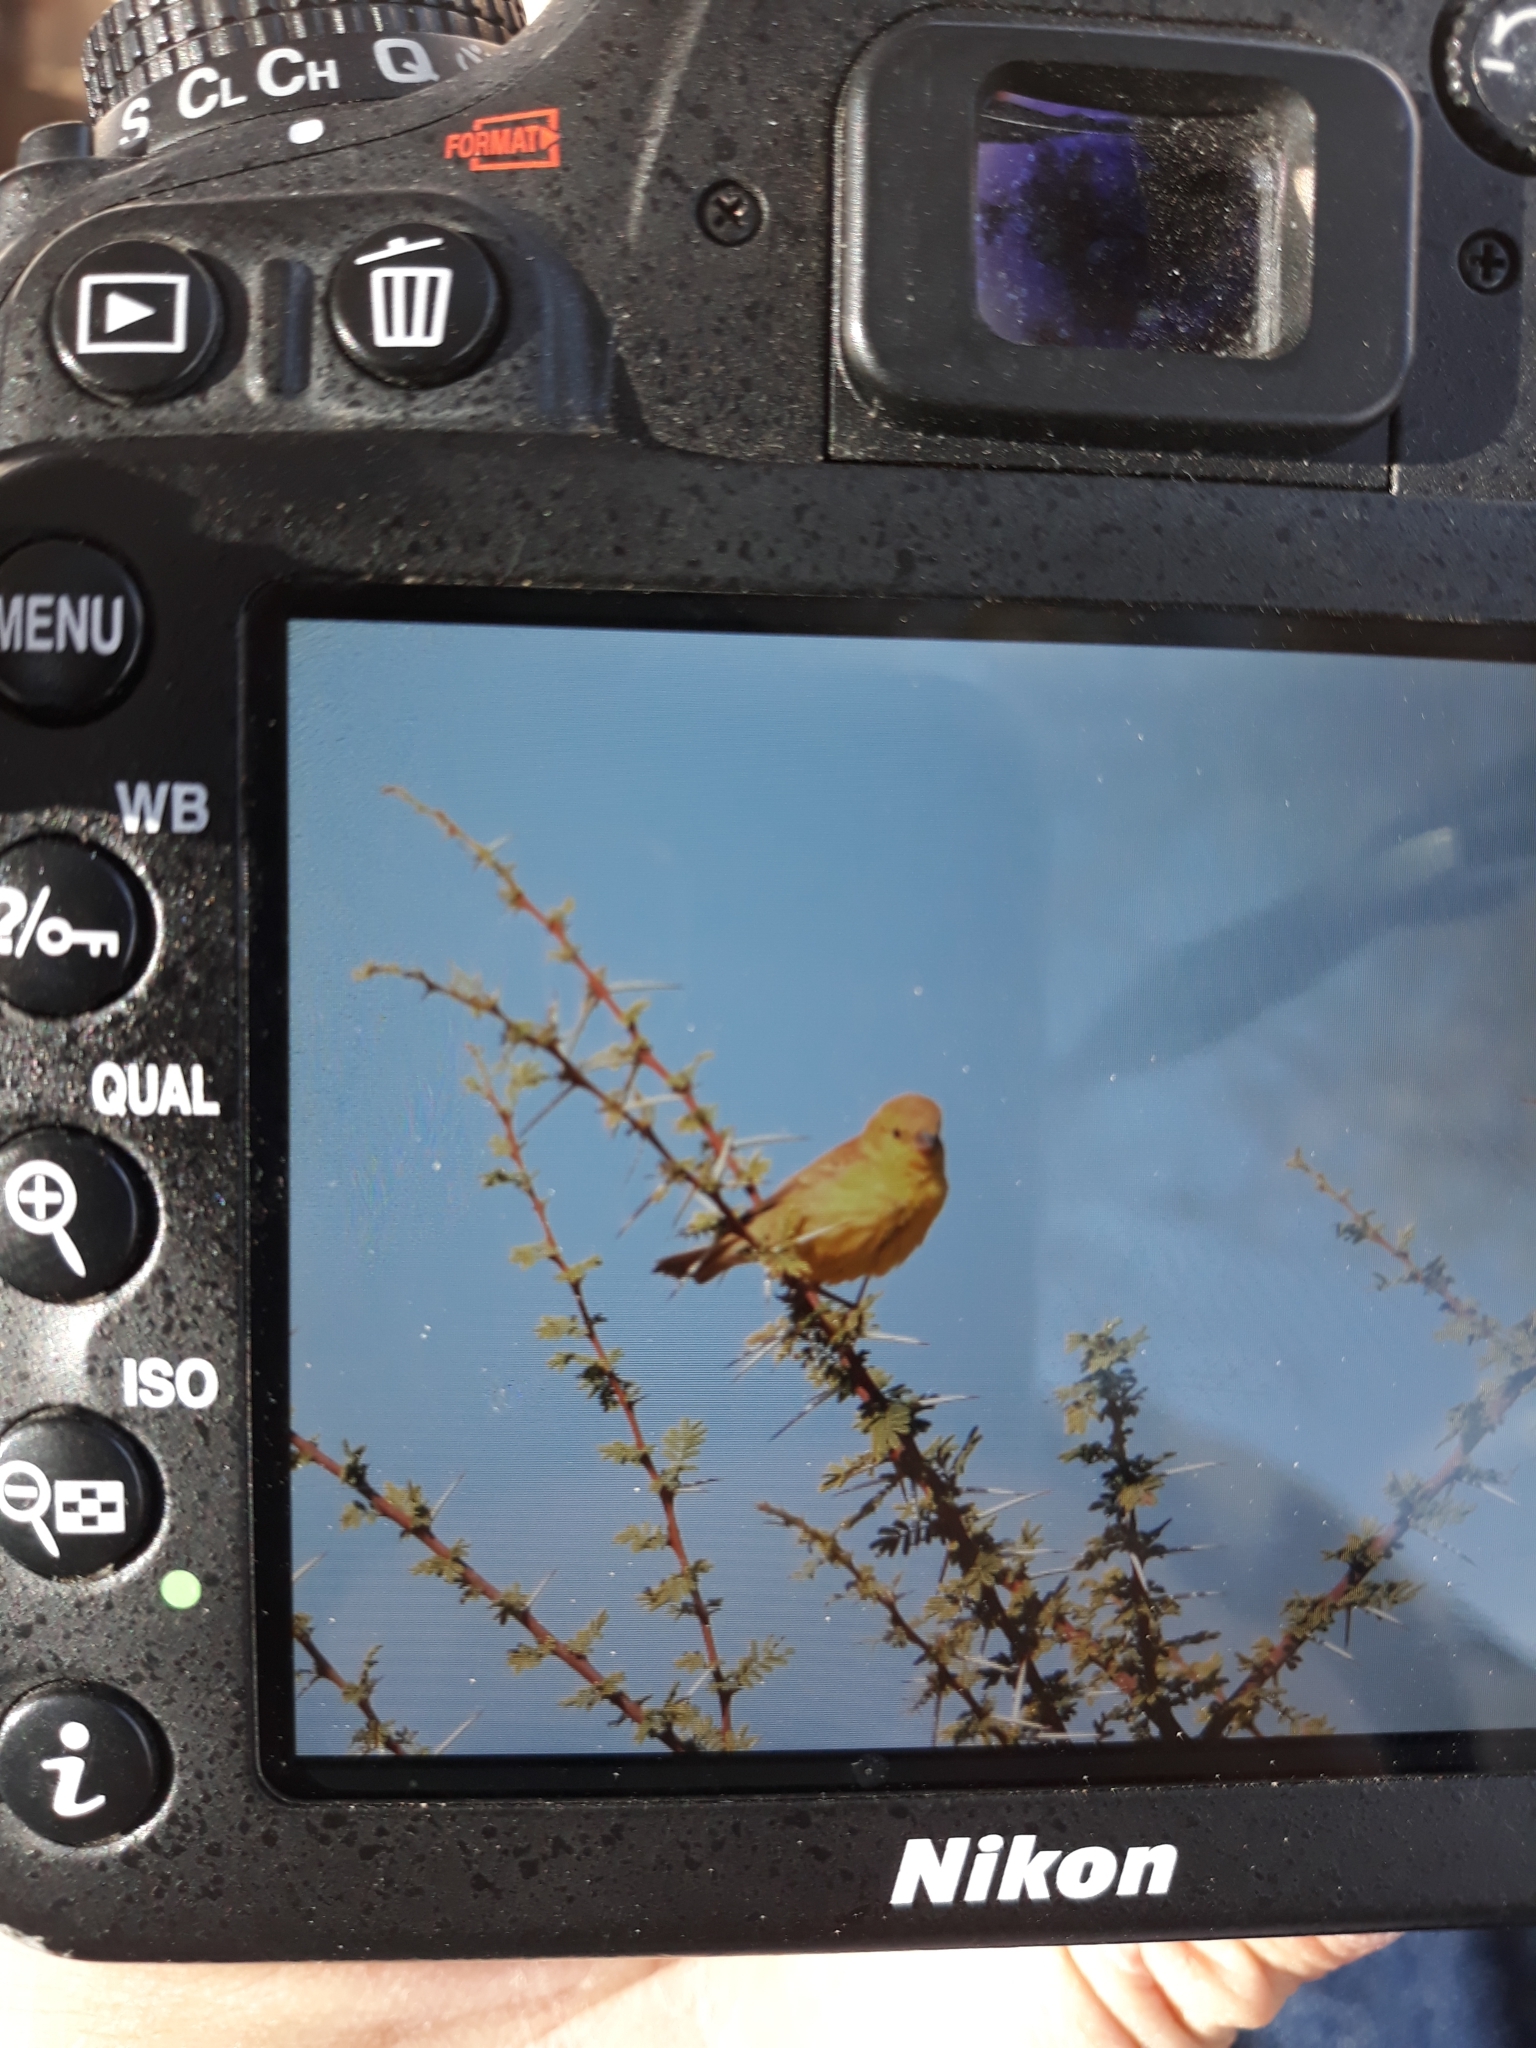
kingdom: Animalia
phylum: Chordata
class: Aves
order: Passeriformes
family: Passeridae
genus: Passer
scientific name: Passer luteus
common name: Sudan golden sparrow
